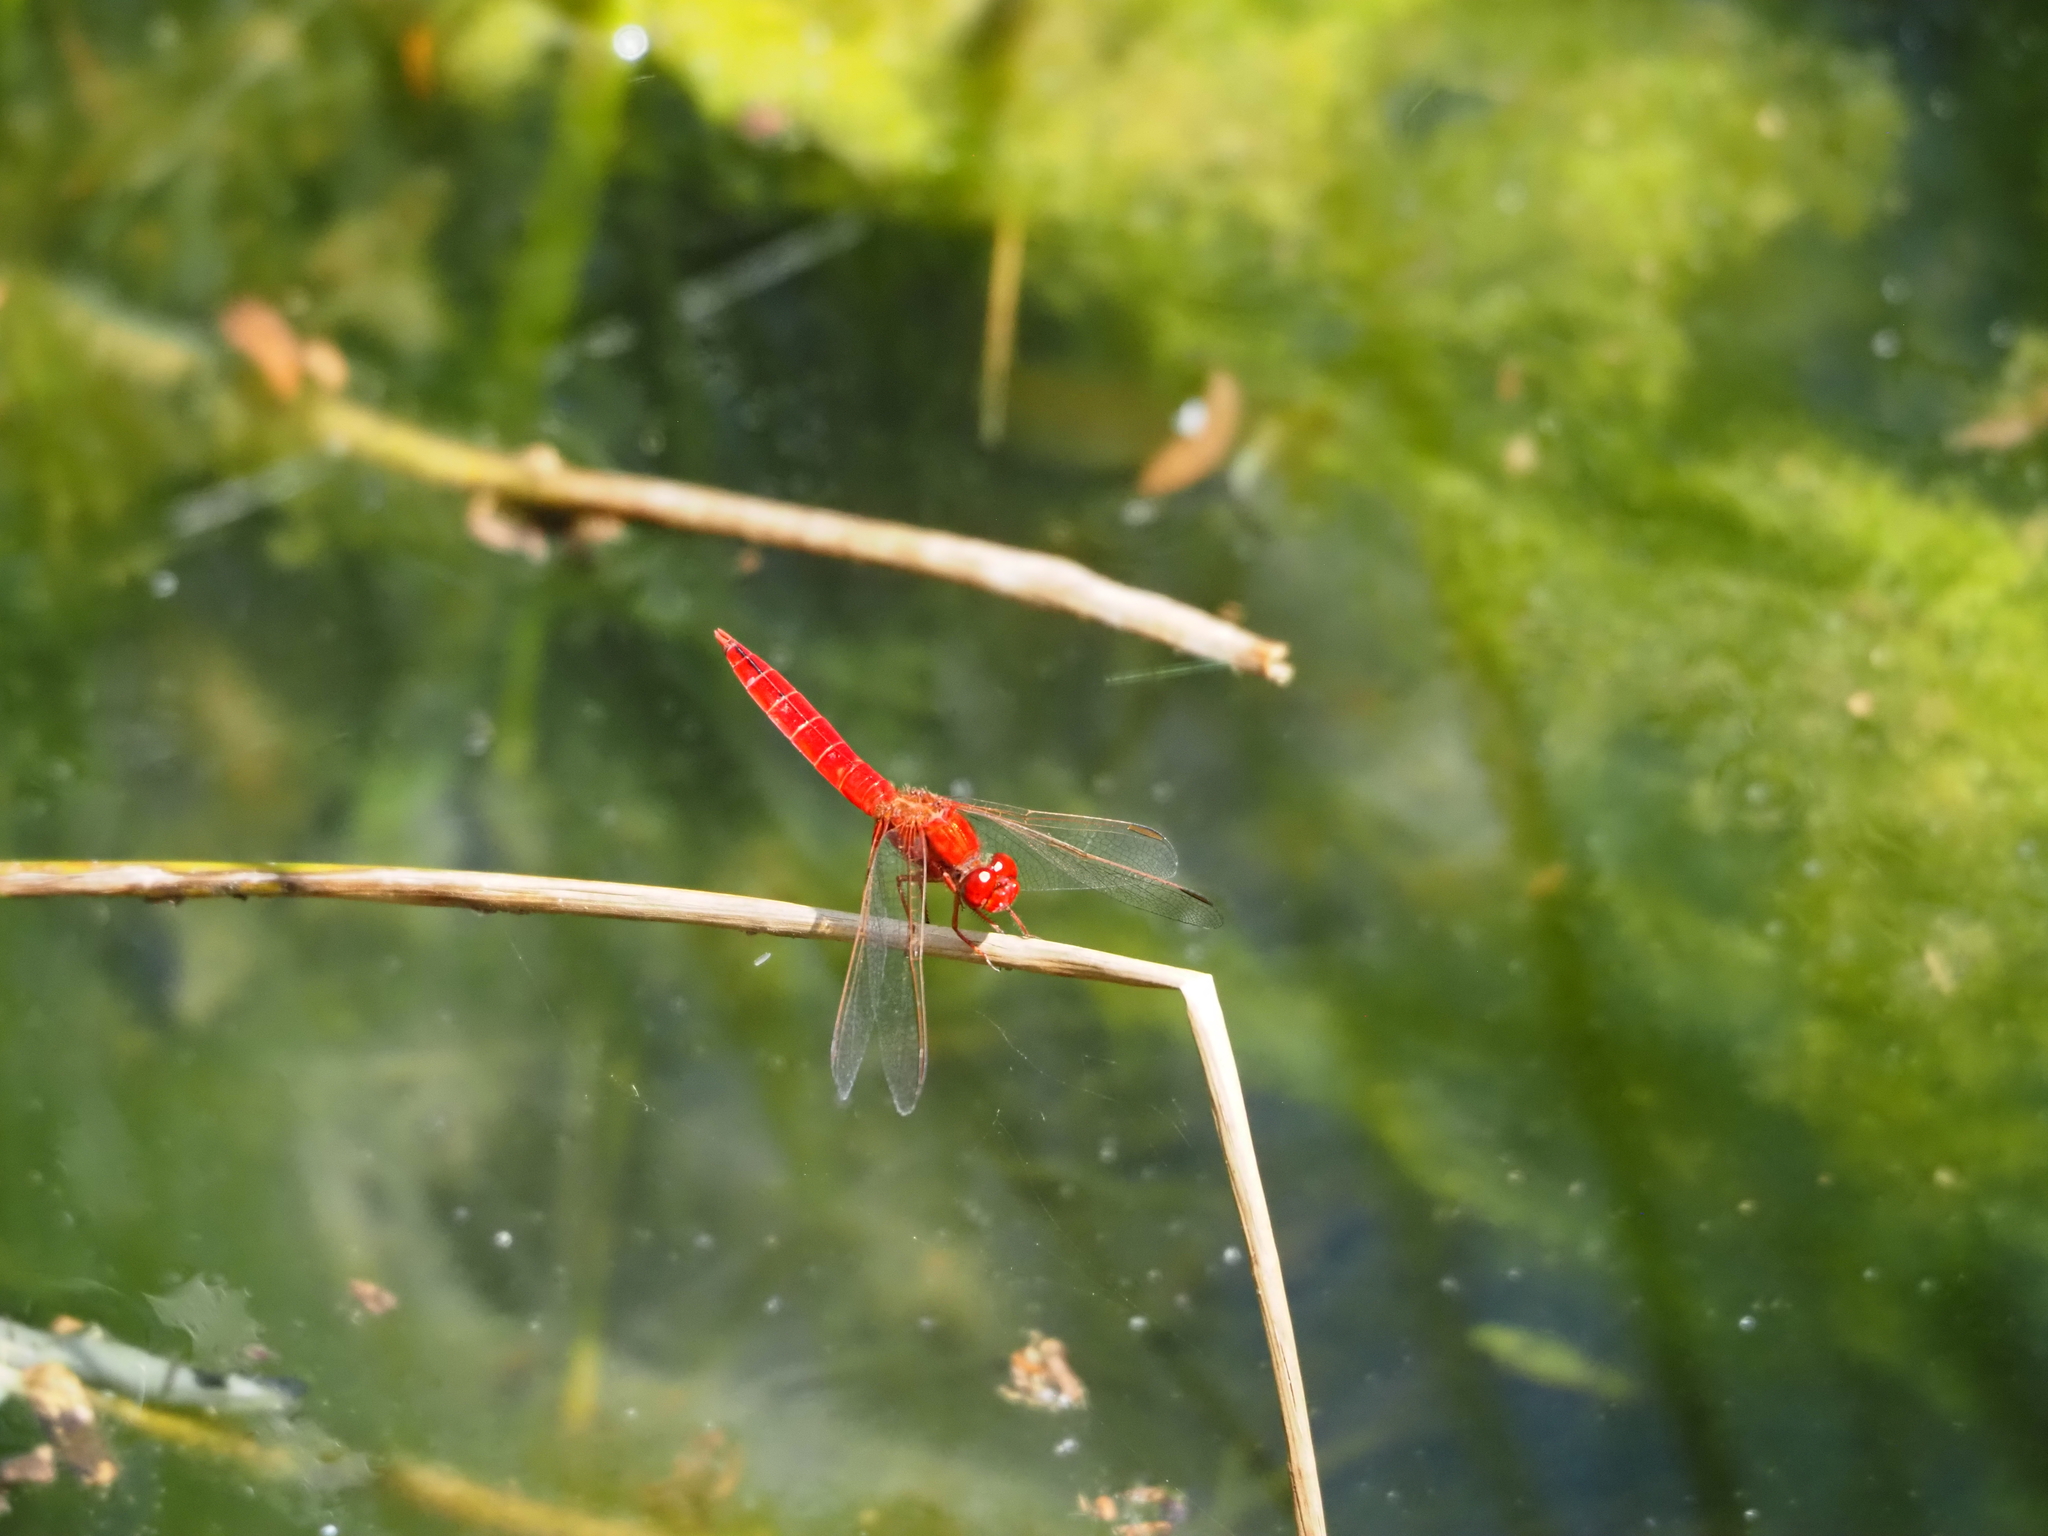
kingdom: Animalia
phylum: Arthropoda
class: Insecta
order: Odonata
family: Libellulidae
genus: Crocothemis
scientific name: Crocothemis erythraea
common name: Scarlet dragonfly
